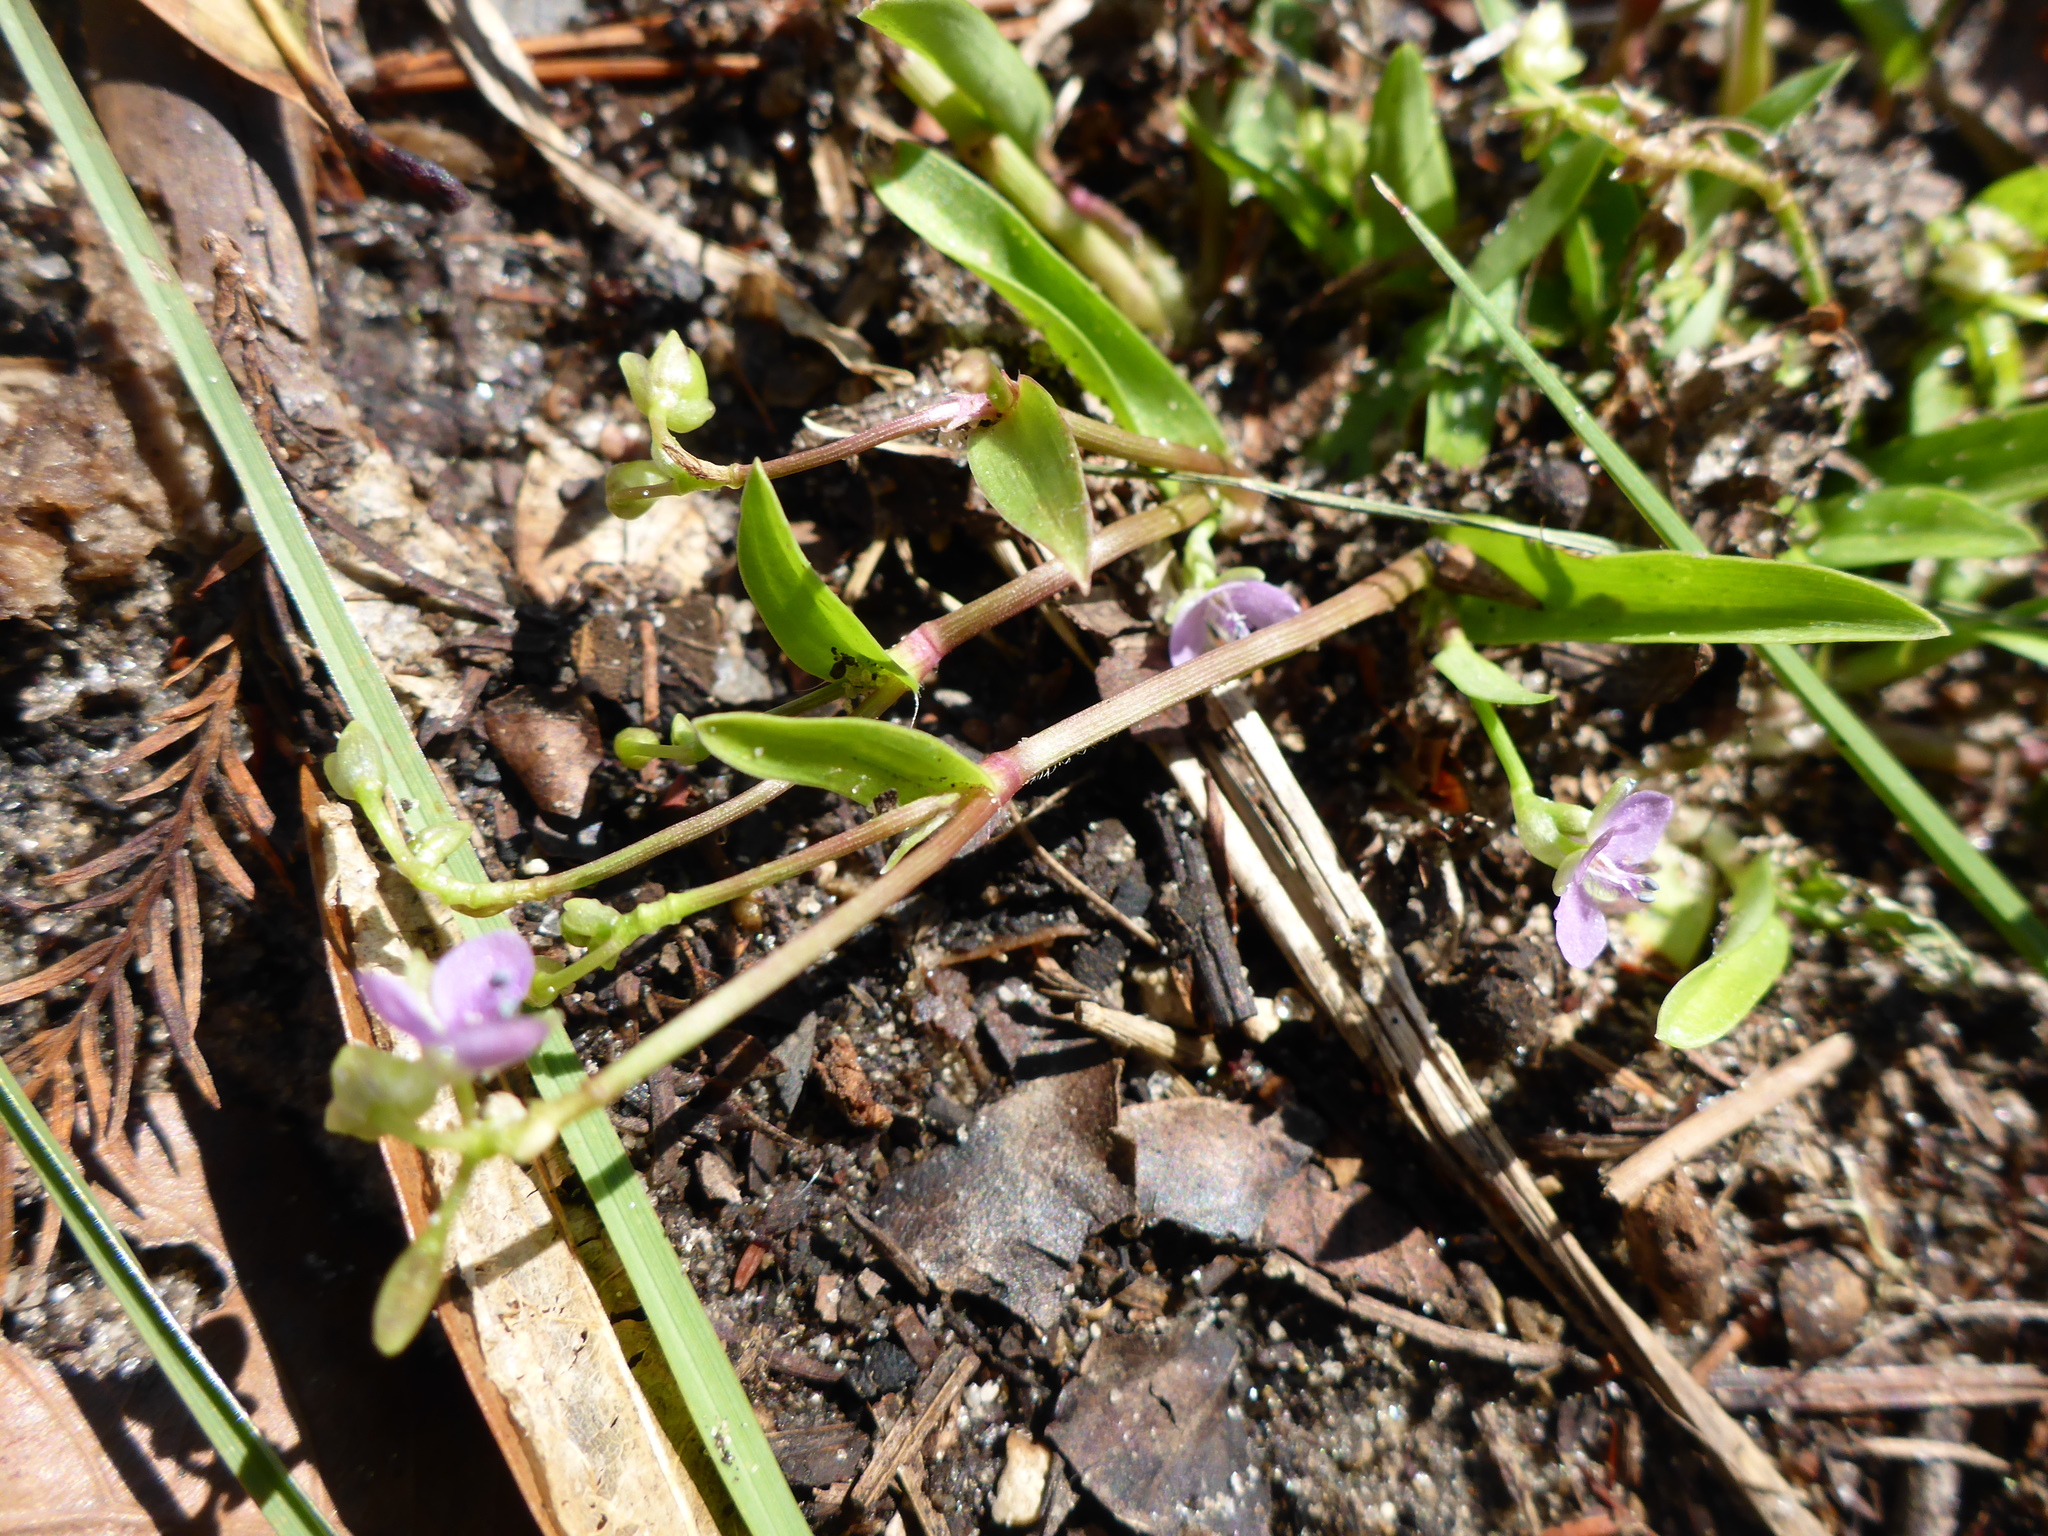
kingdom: Plantae
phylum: Tracheophyta
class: Liliopsida
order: Commelinales
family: Commelinaceae
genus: Murdannia
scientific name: Murdannia nudiflora
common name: Nakedstem dewflower
